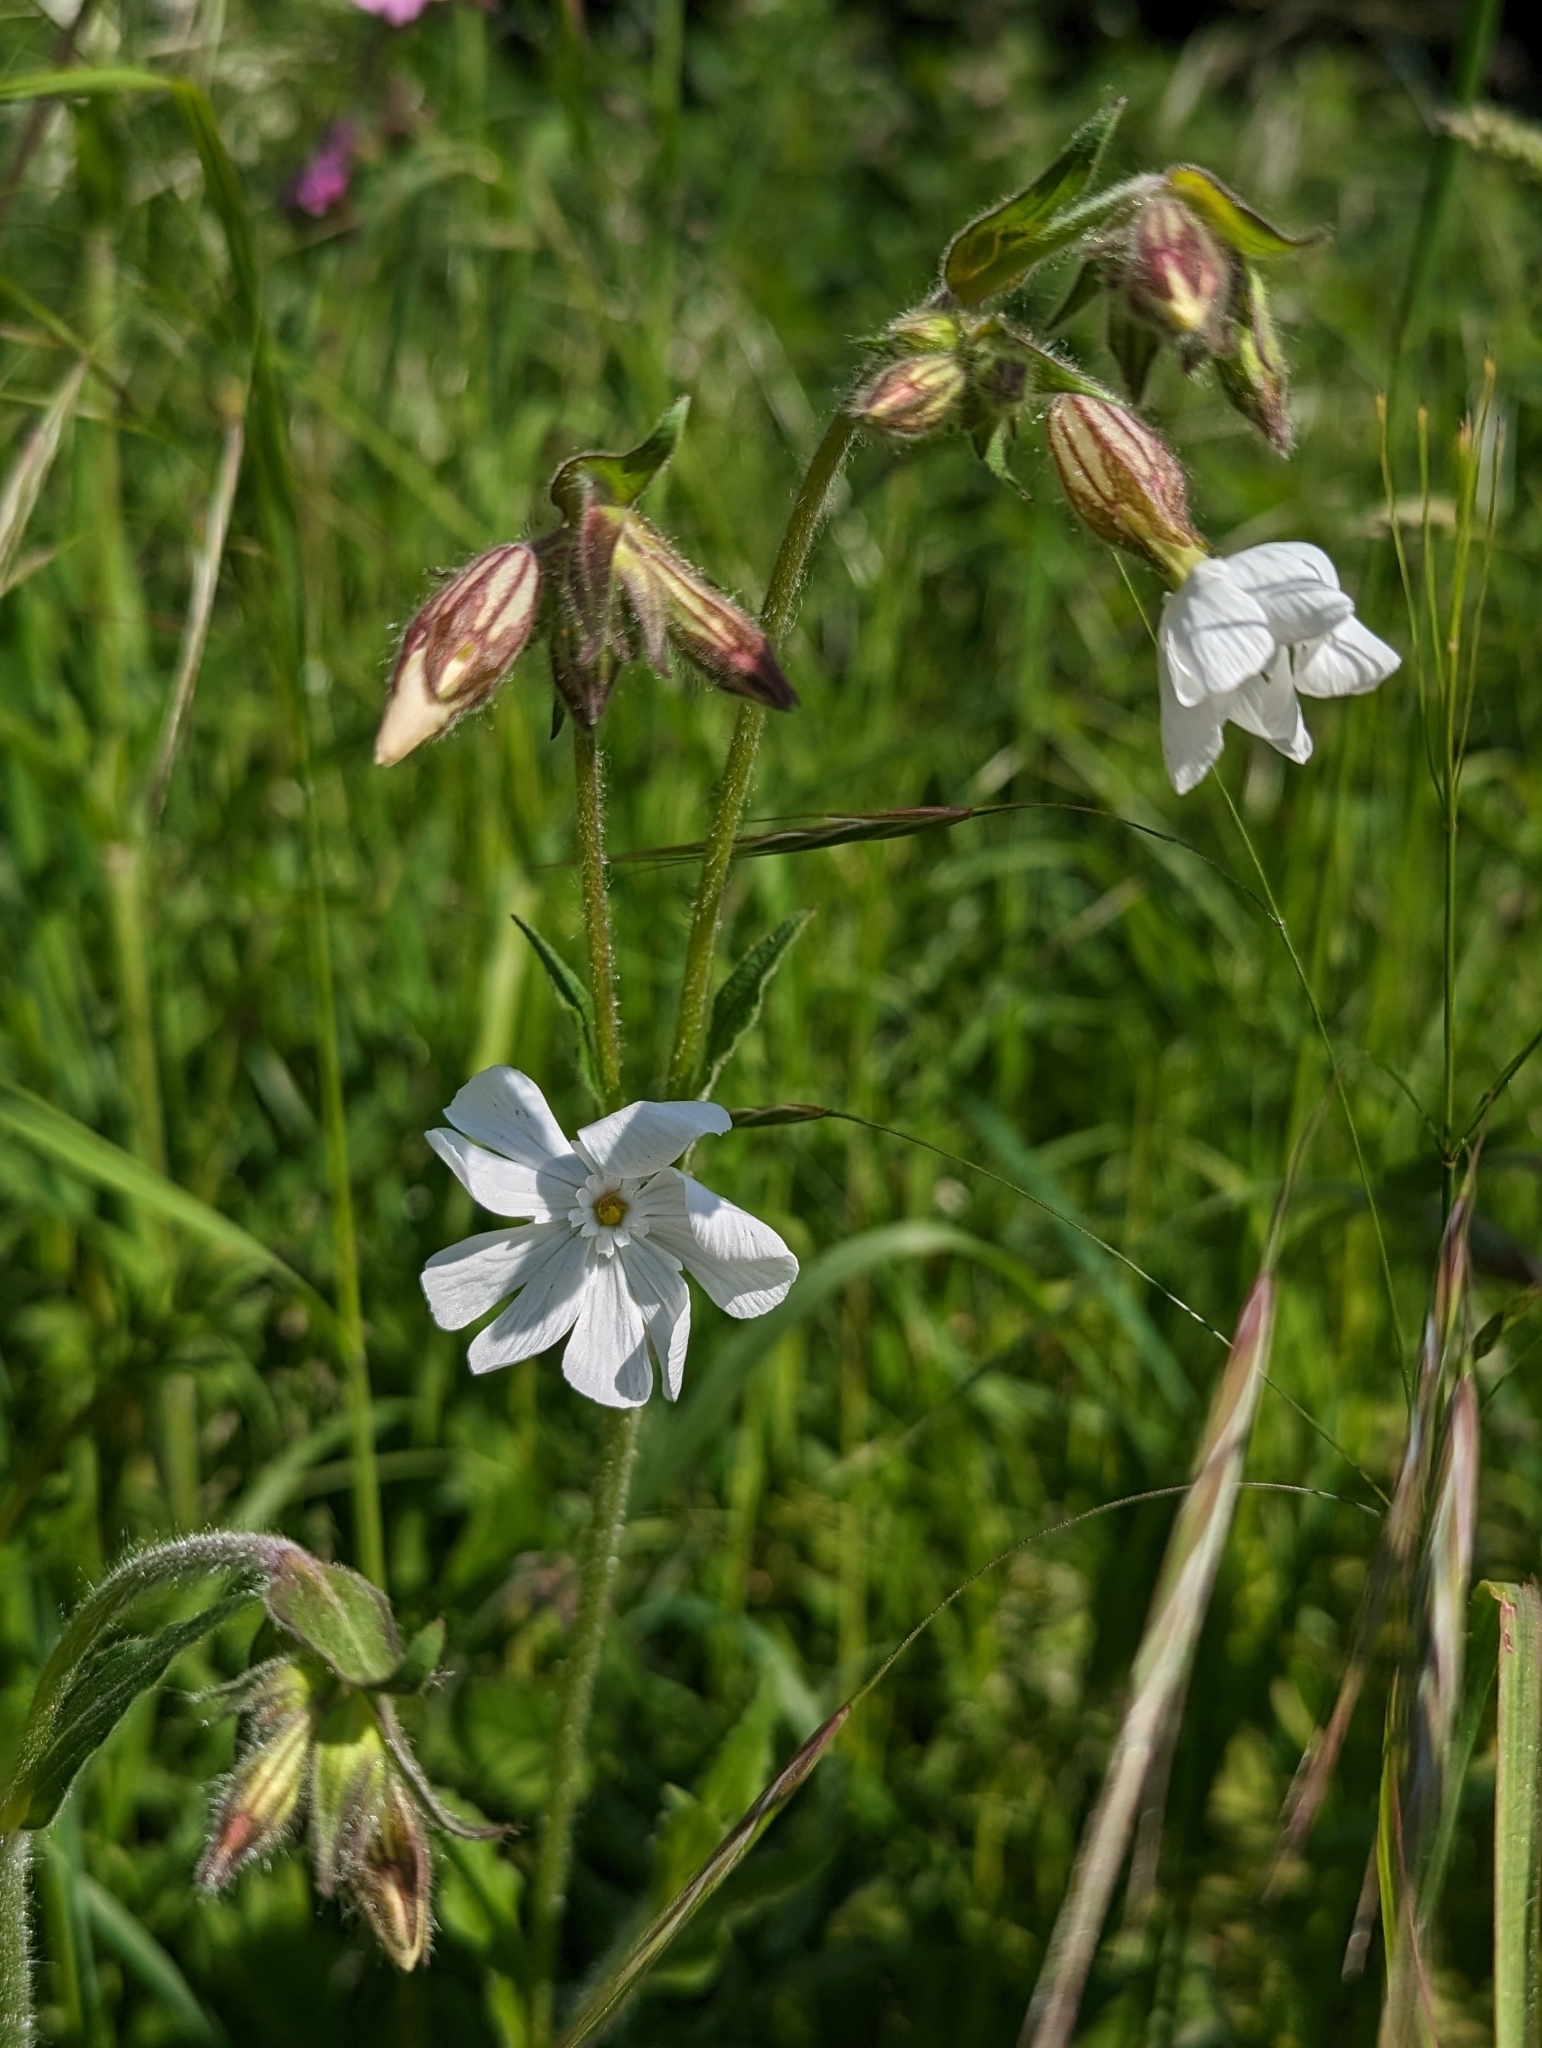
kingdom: Plantae
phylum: Tracheophyta
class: Magnoliopsida
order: Caryophyllales
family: Caryophyllaceae
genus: Silene
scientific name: Silene latifolia
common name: White campion
